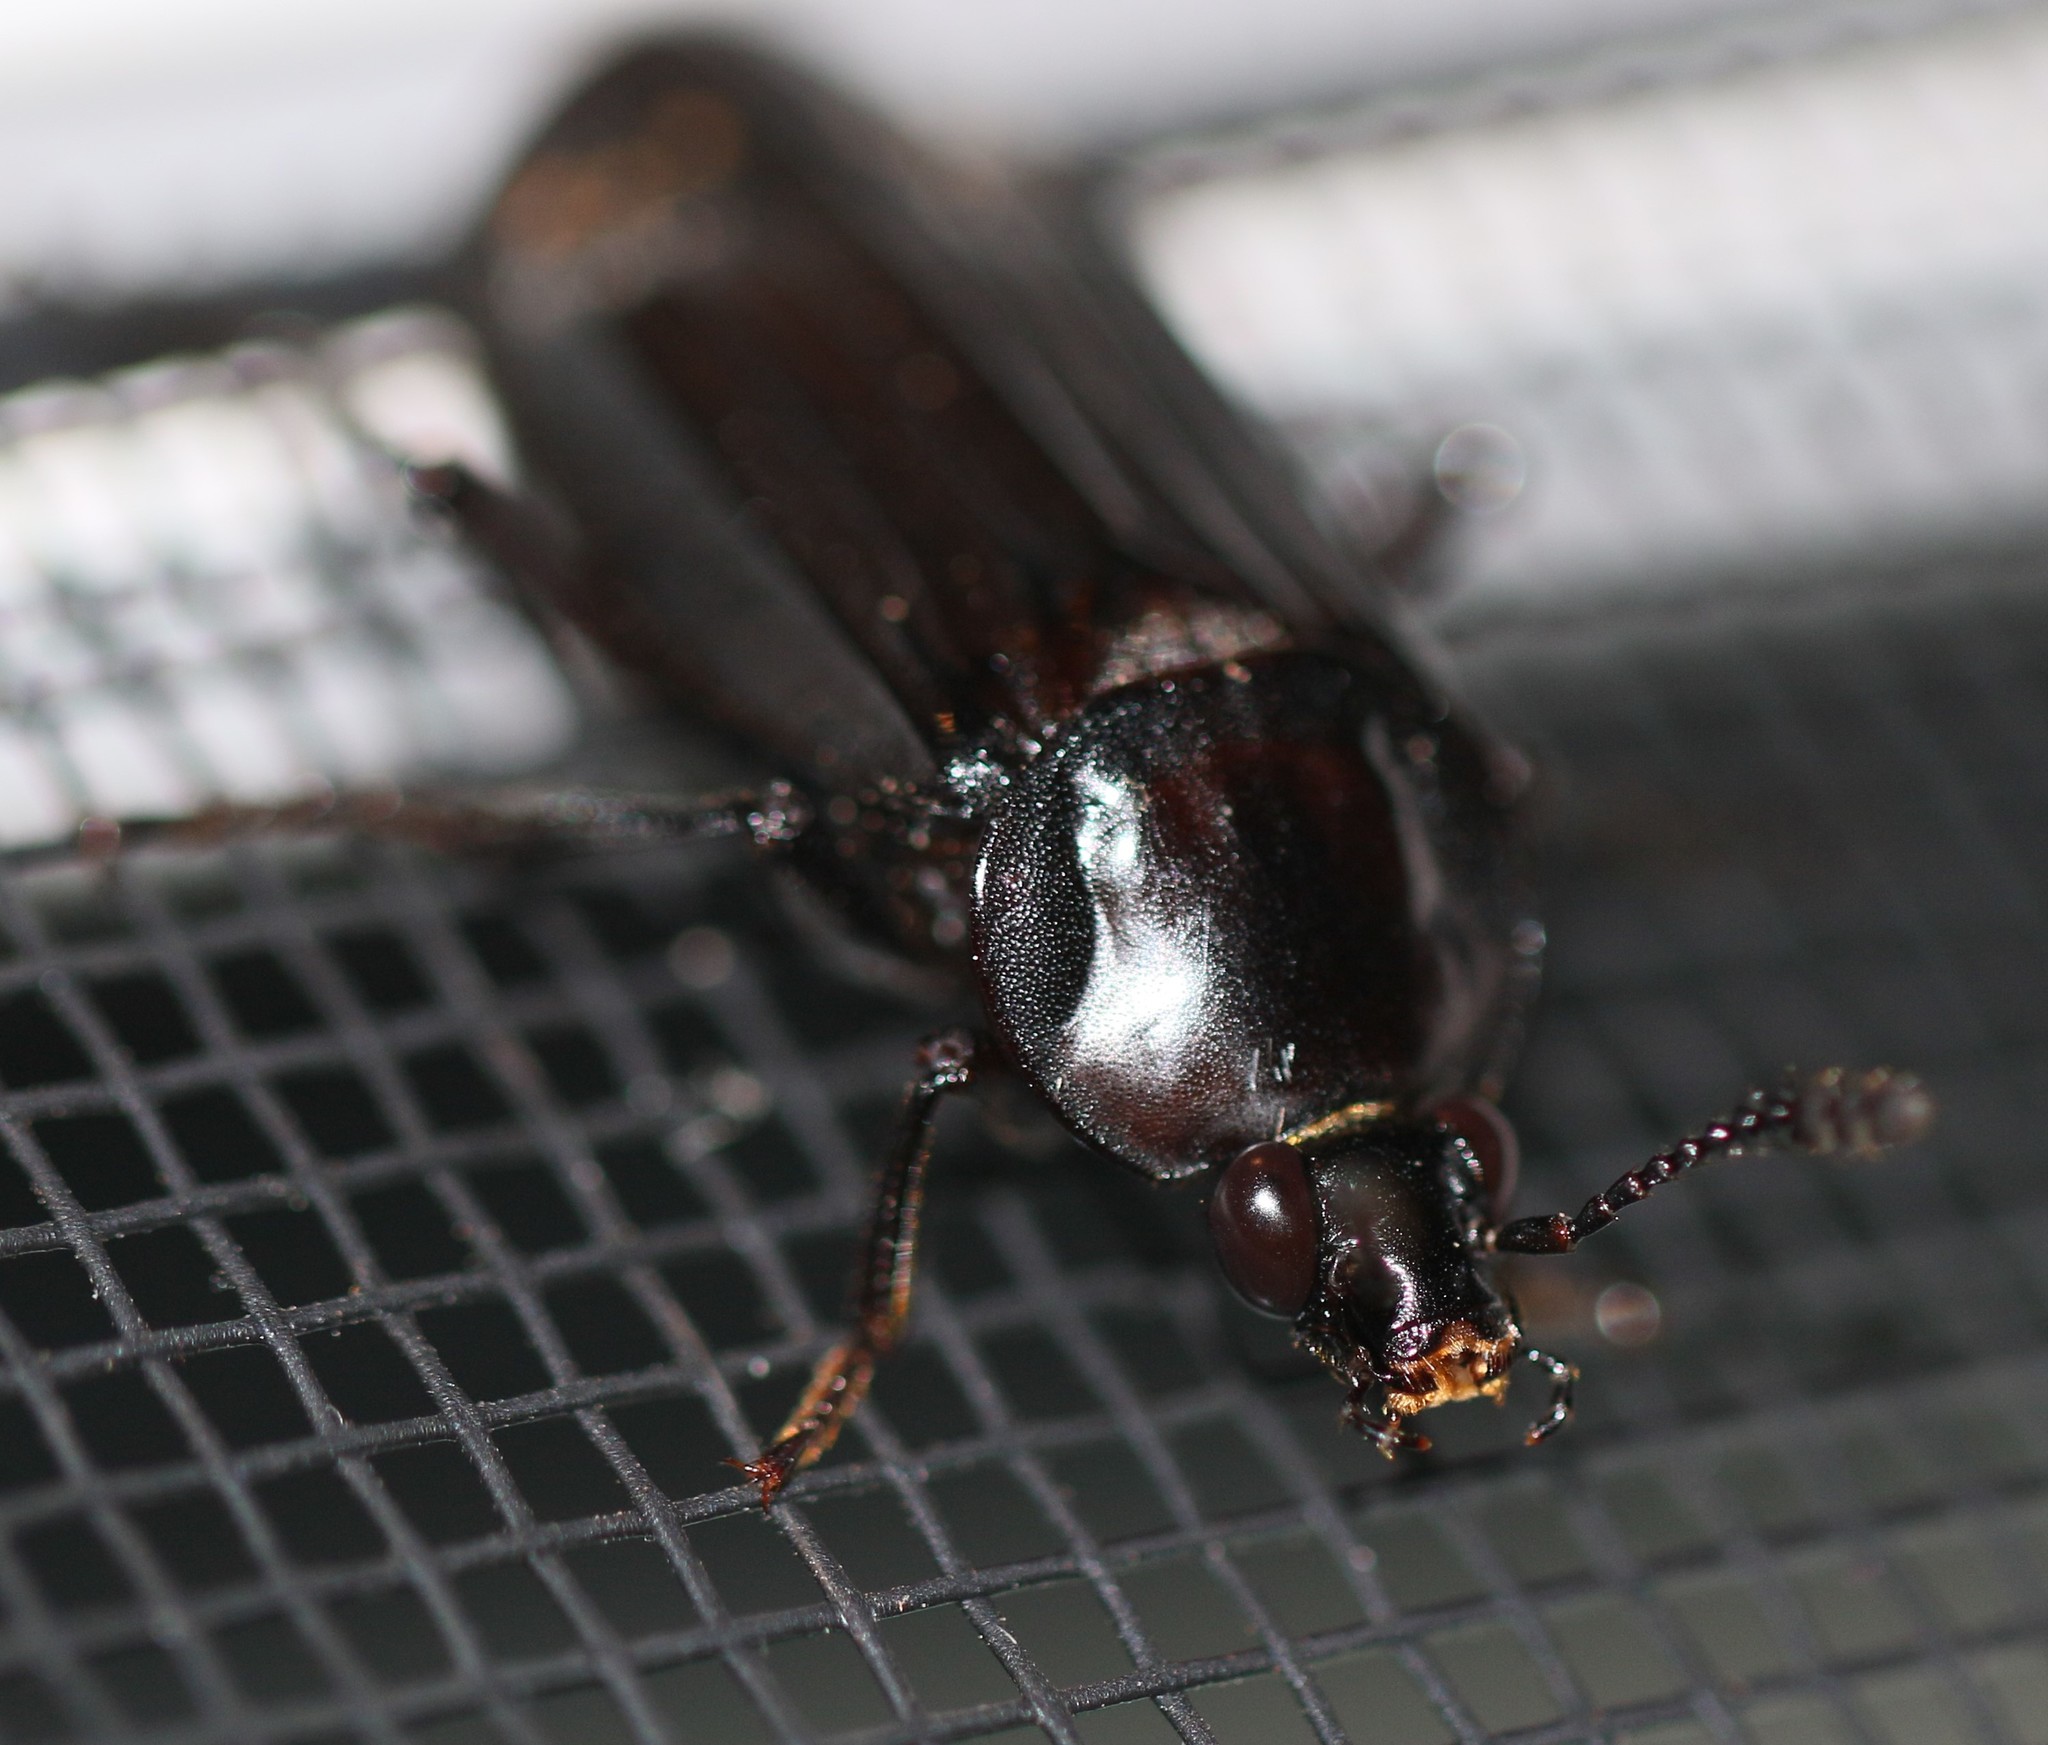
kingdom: Animalia
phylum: Arthropoda
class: Insecta
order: Coleoptera
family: Staphylinidae
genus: Necrodes
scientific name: Necrodes surinamensis
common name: Red-lined carrion beetle
